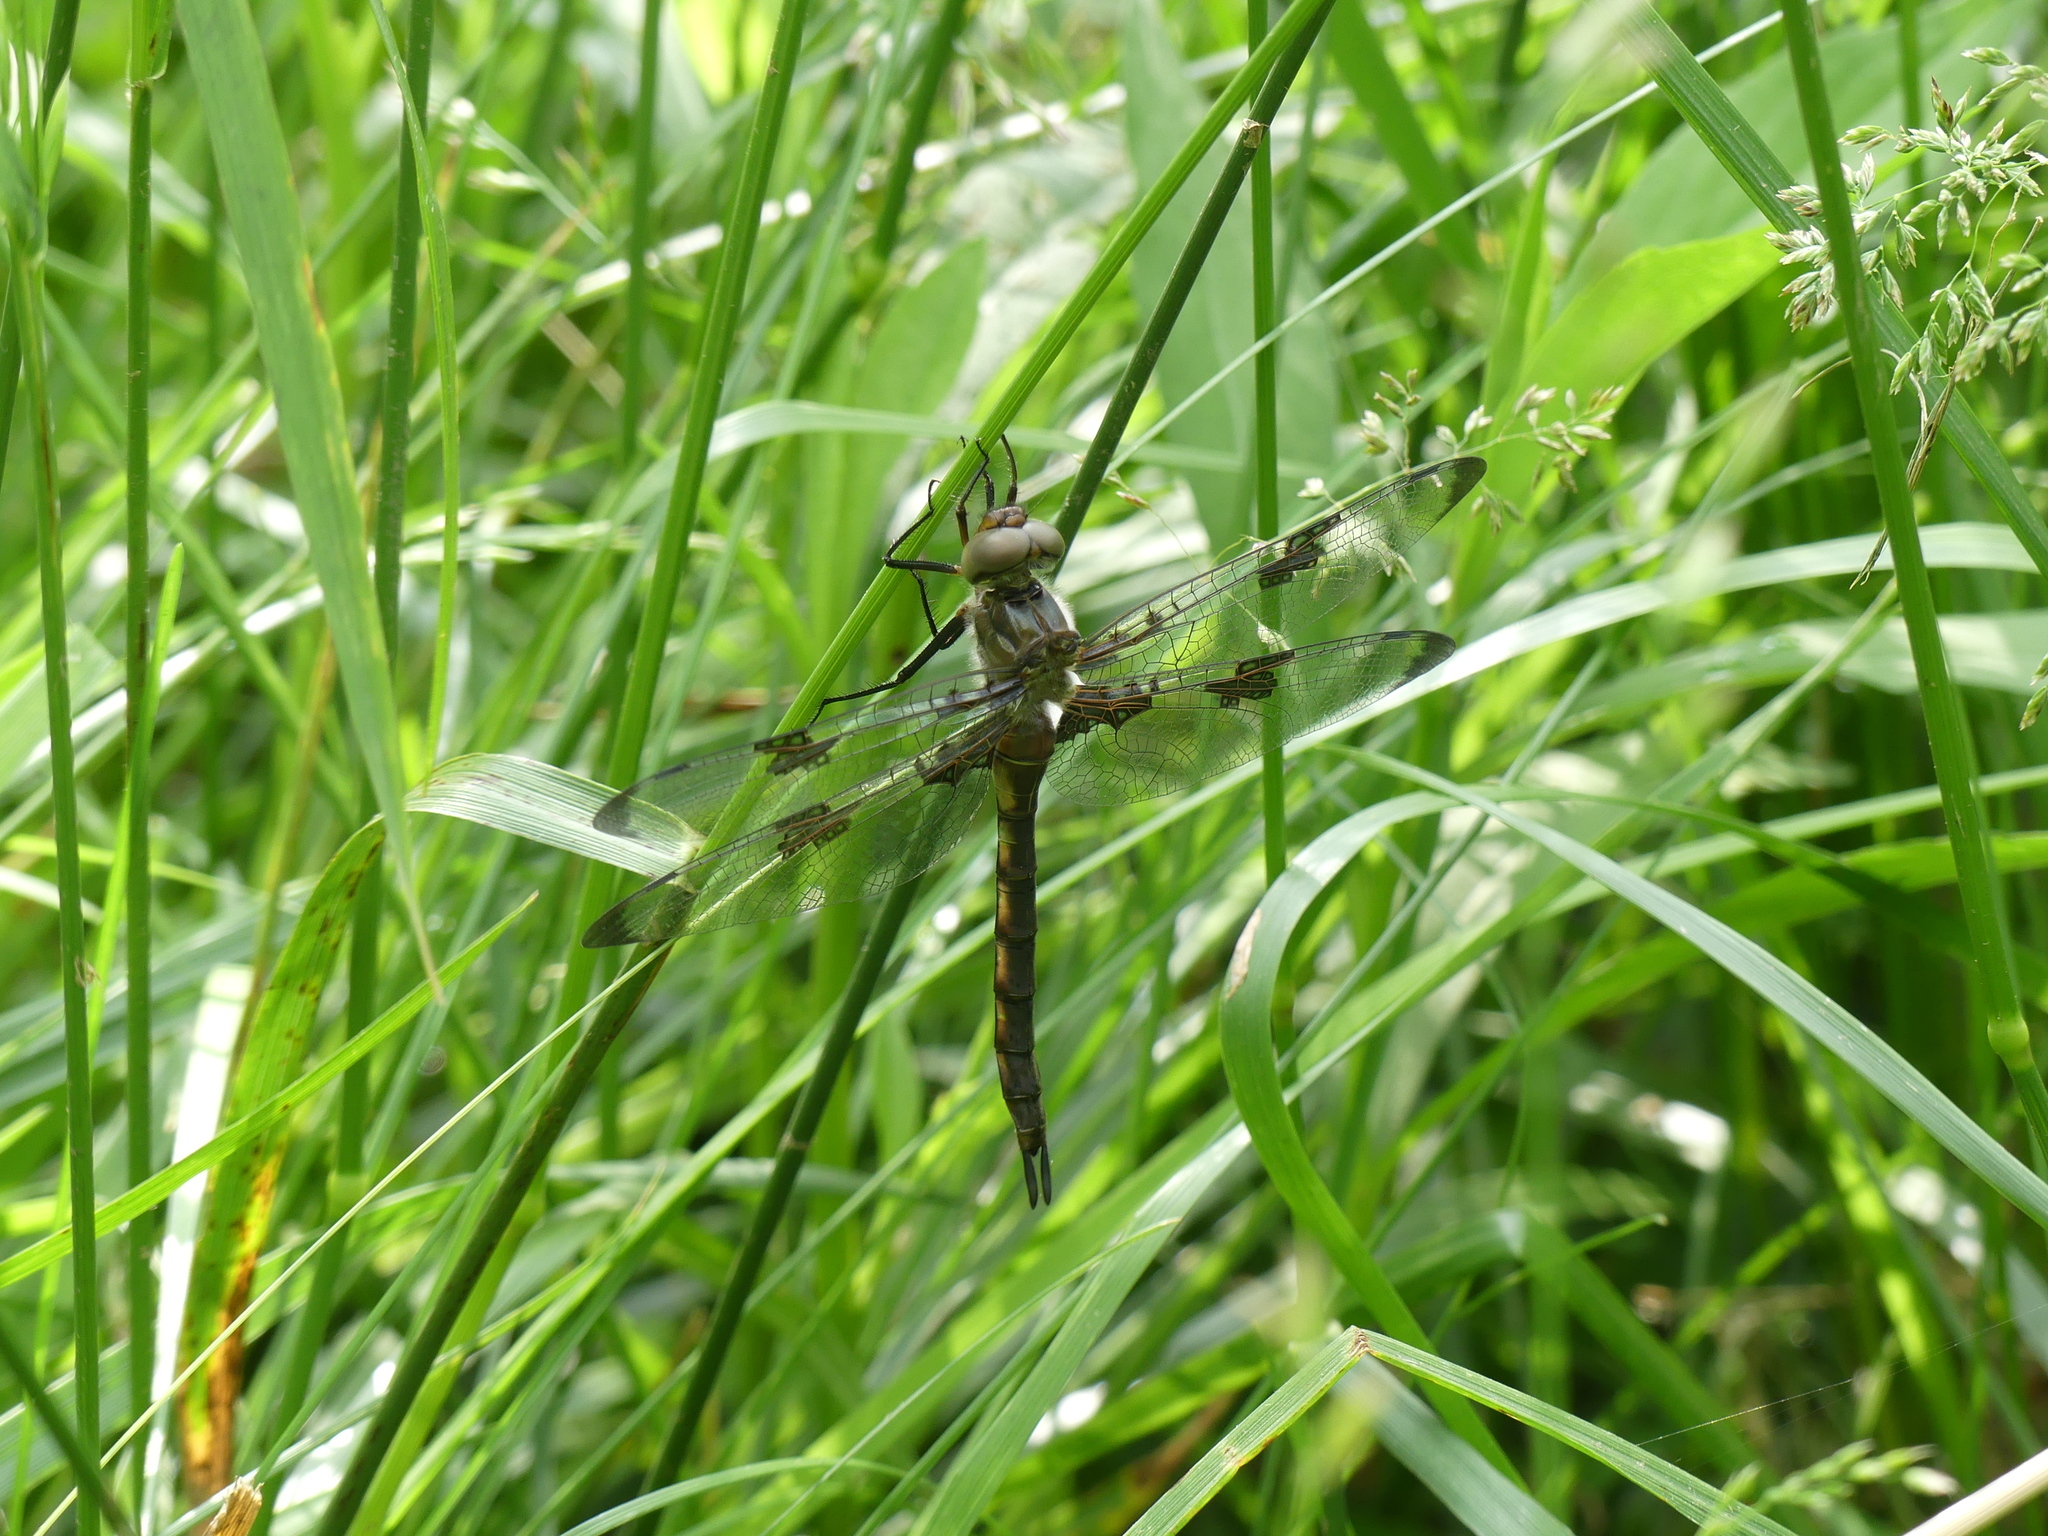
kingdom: Animalia
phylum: Arthropoda
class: Insecta
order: Odonata
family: Corduliidae
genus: Epitheca
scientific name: Epitheca princeps
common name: Prince baskettail
